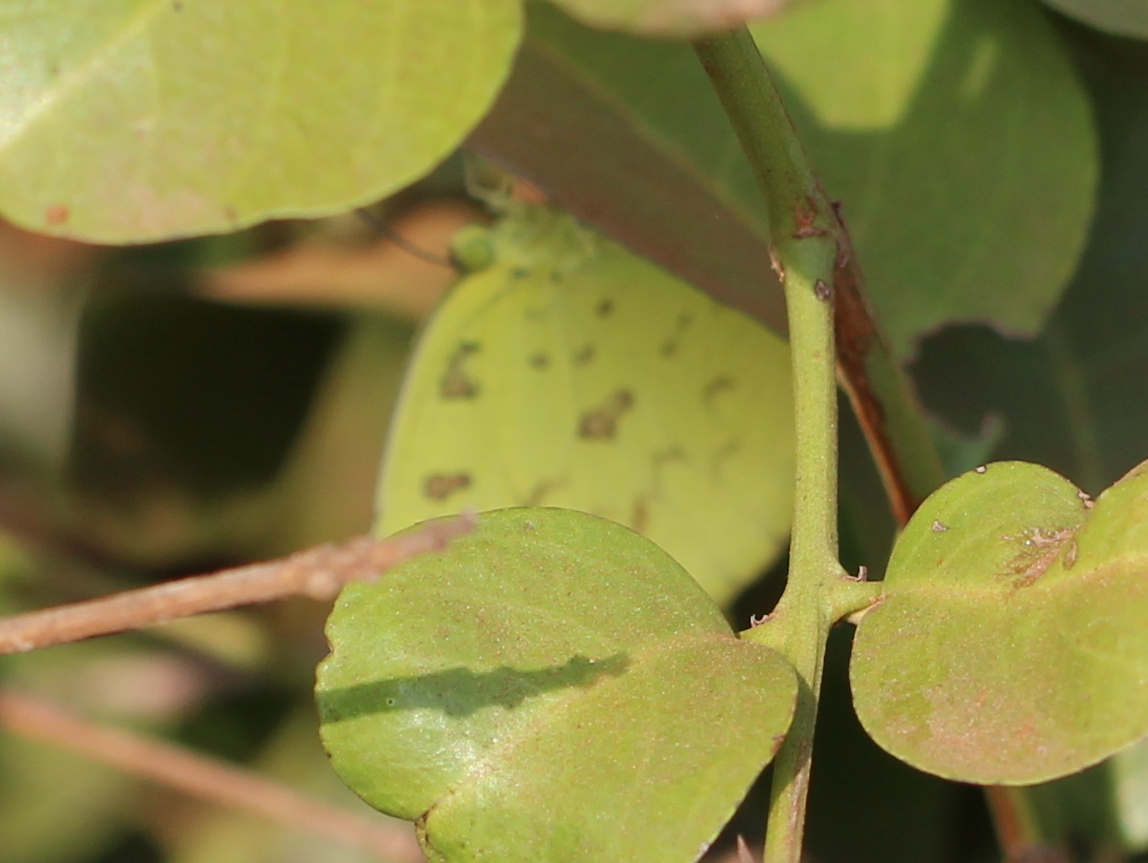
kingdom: Animalia
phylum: Arthropoda
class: Insecta
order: Lepidoptera
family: Pieridae
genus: Eurema
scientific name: Eurema hecabe
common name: Pale grass yellow
